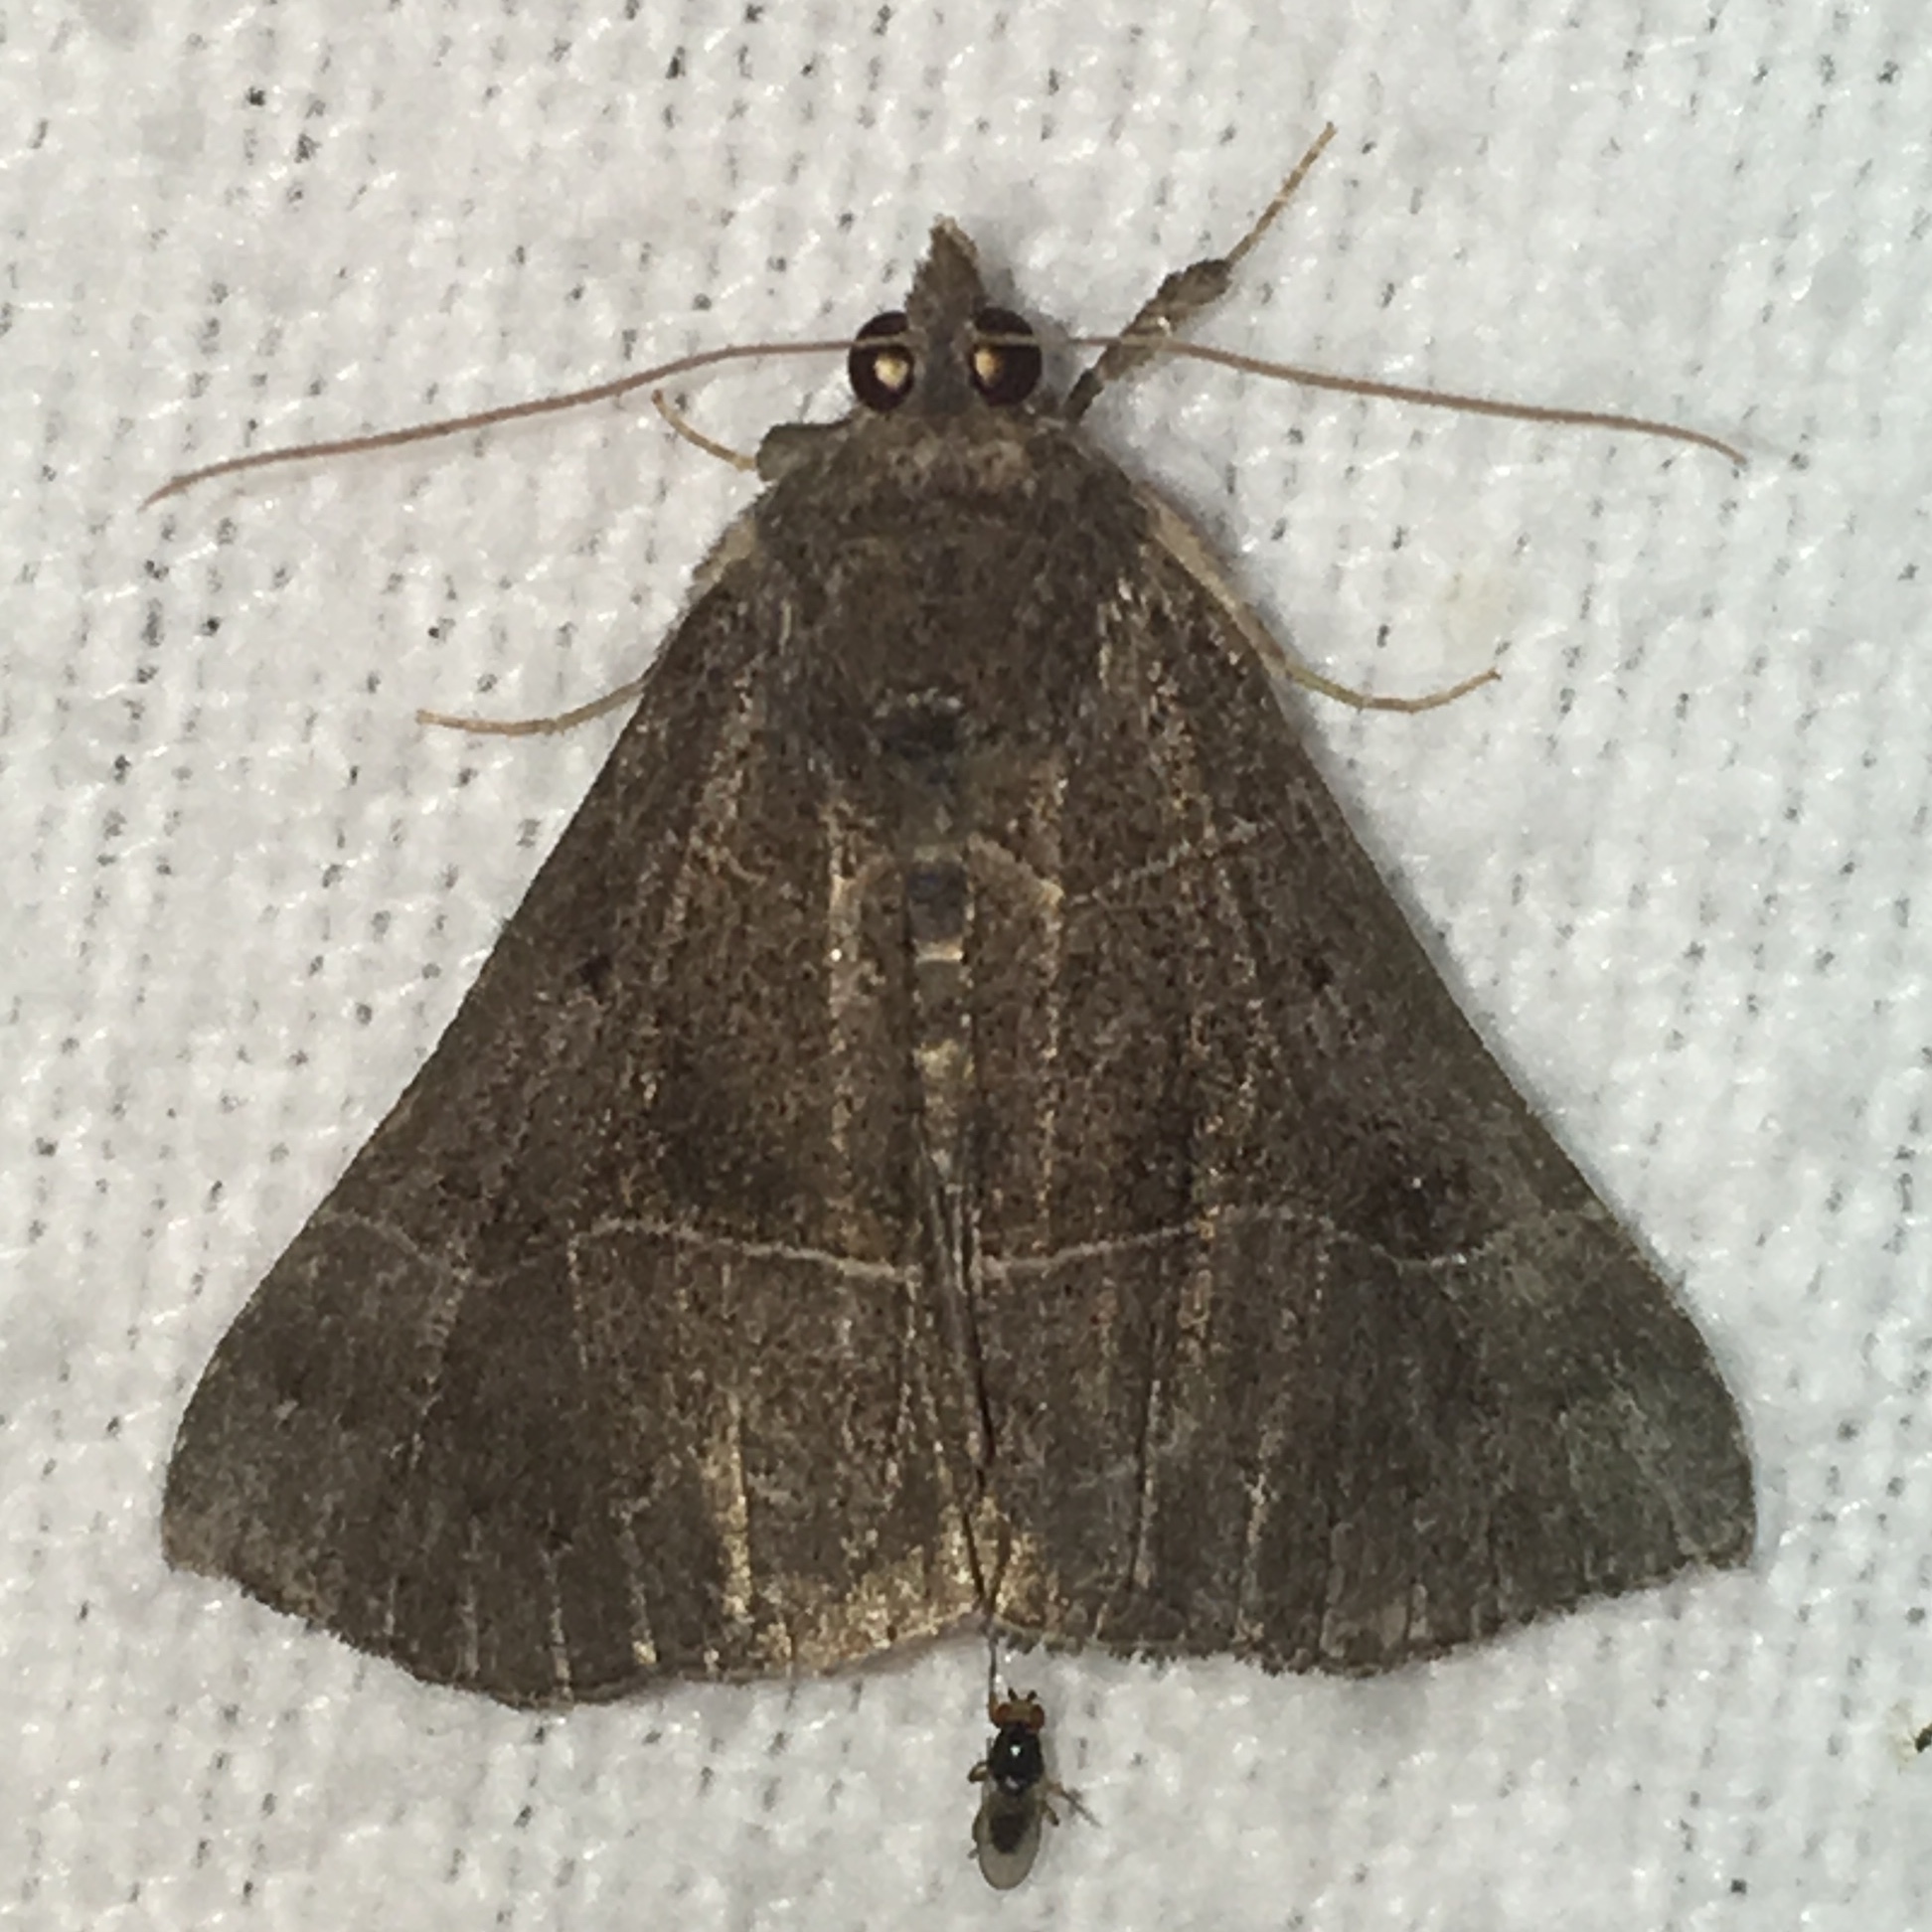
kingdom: Animalia
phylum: Arthropoda
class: Insecta
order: Lepidoptera
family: Erebidae
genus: Hypena
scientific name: Hypena deceptalis
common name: Deceptive snout
